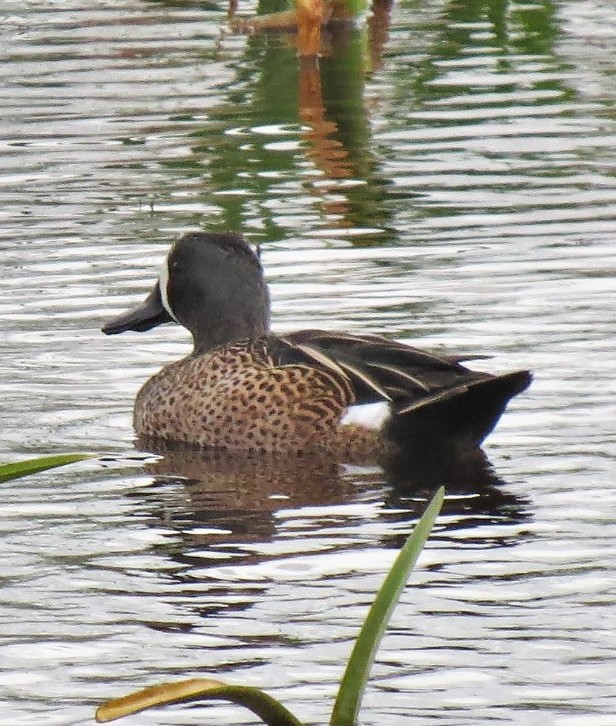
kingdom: Animalia
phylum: Chordata
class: Aves
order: Anseriformes
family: Anatidae
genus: Spatula
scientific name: Spatula discors
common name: Blue-winged teal
